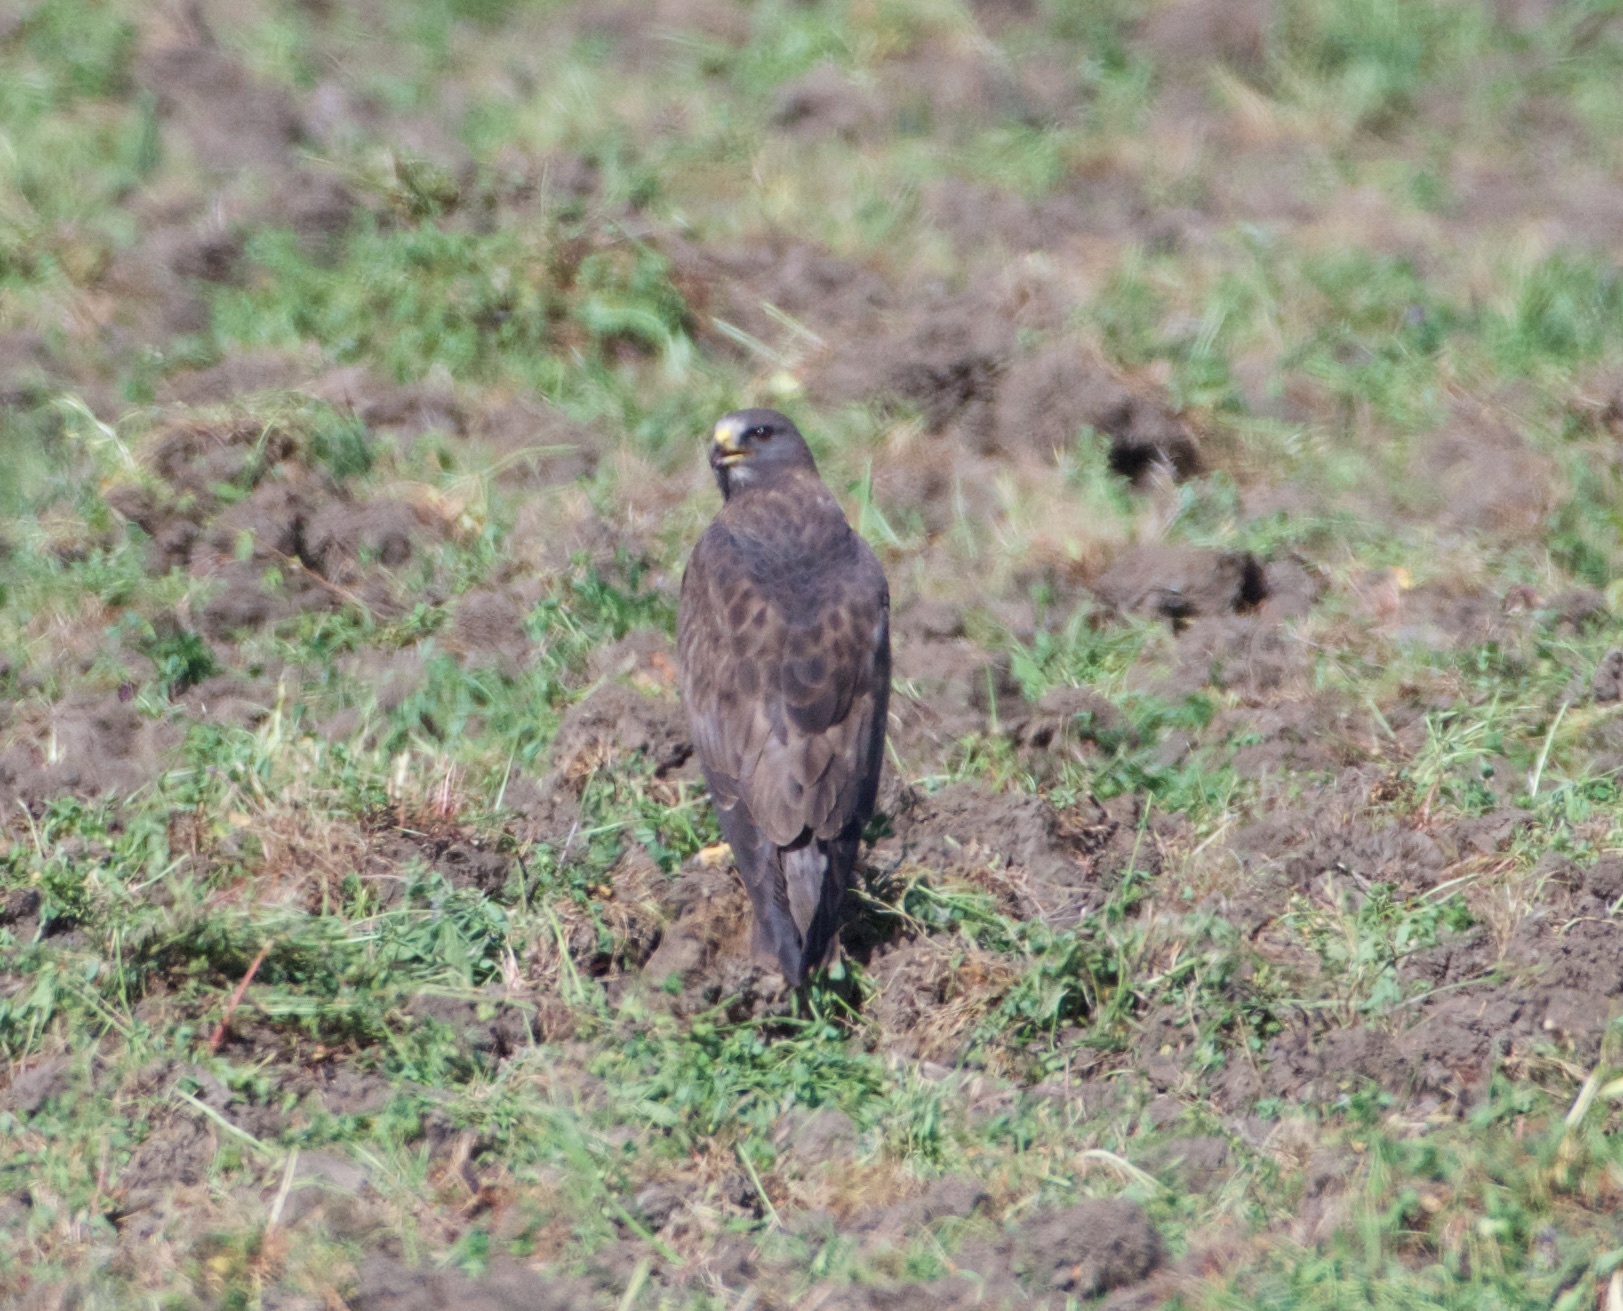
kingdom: Animalia
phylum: Chordata
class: Aves
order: Accipitriformes
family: Accipitridae
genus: Buteo
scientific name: Buteo swainsoni
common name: Swainson's hawk
